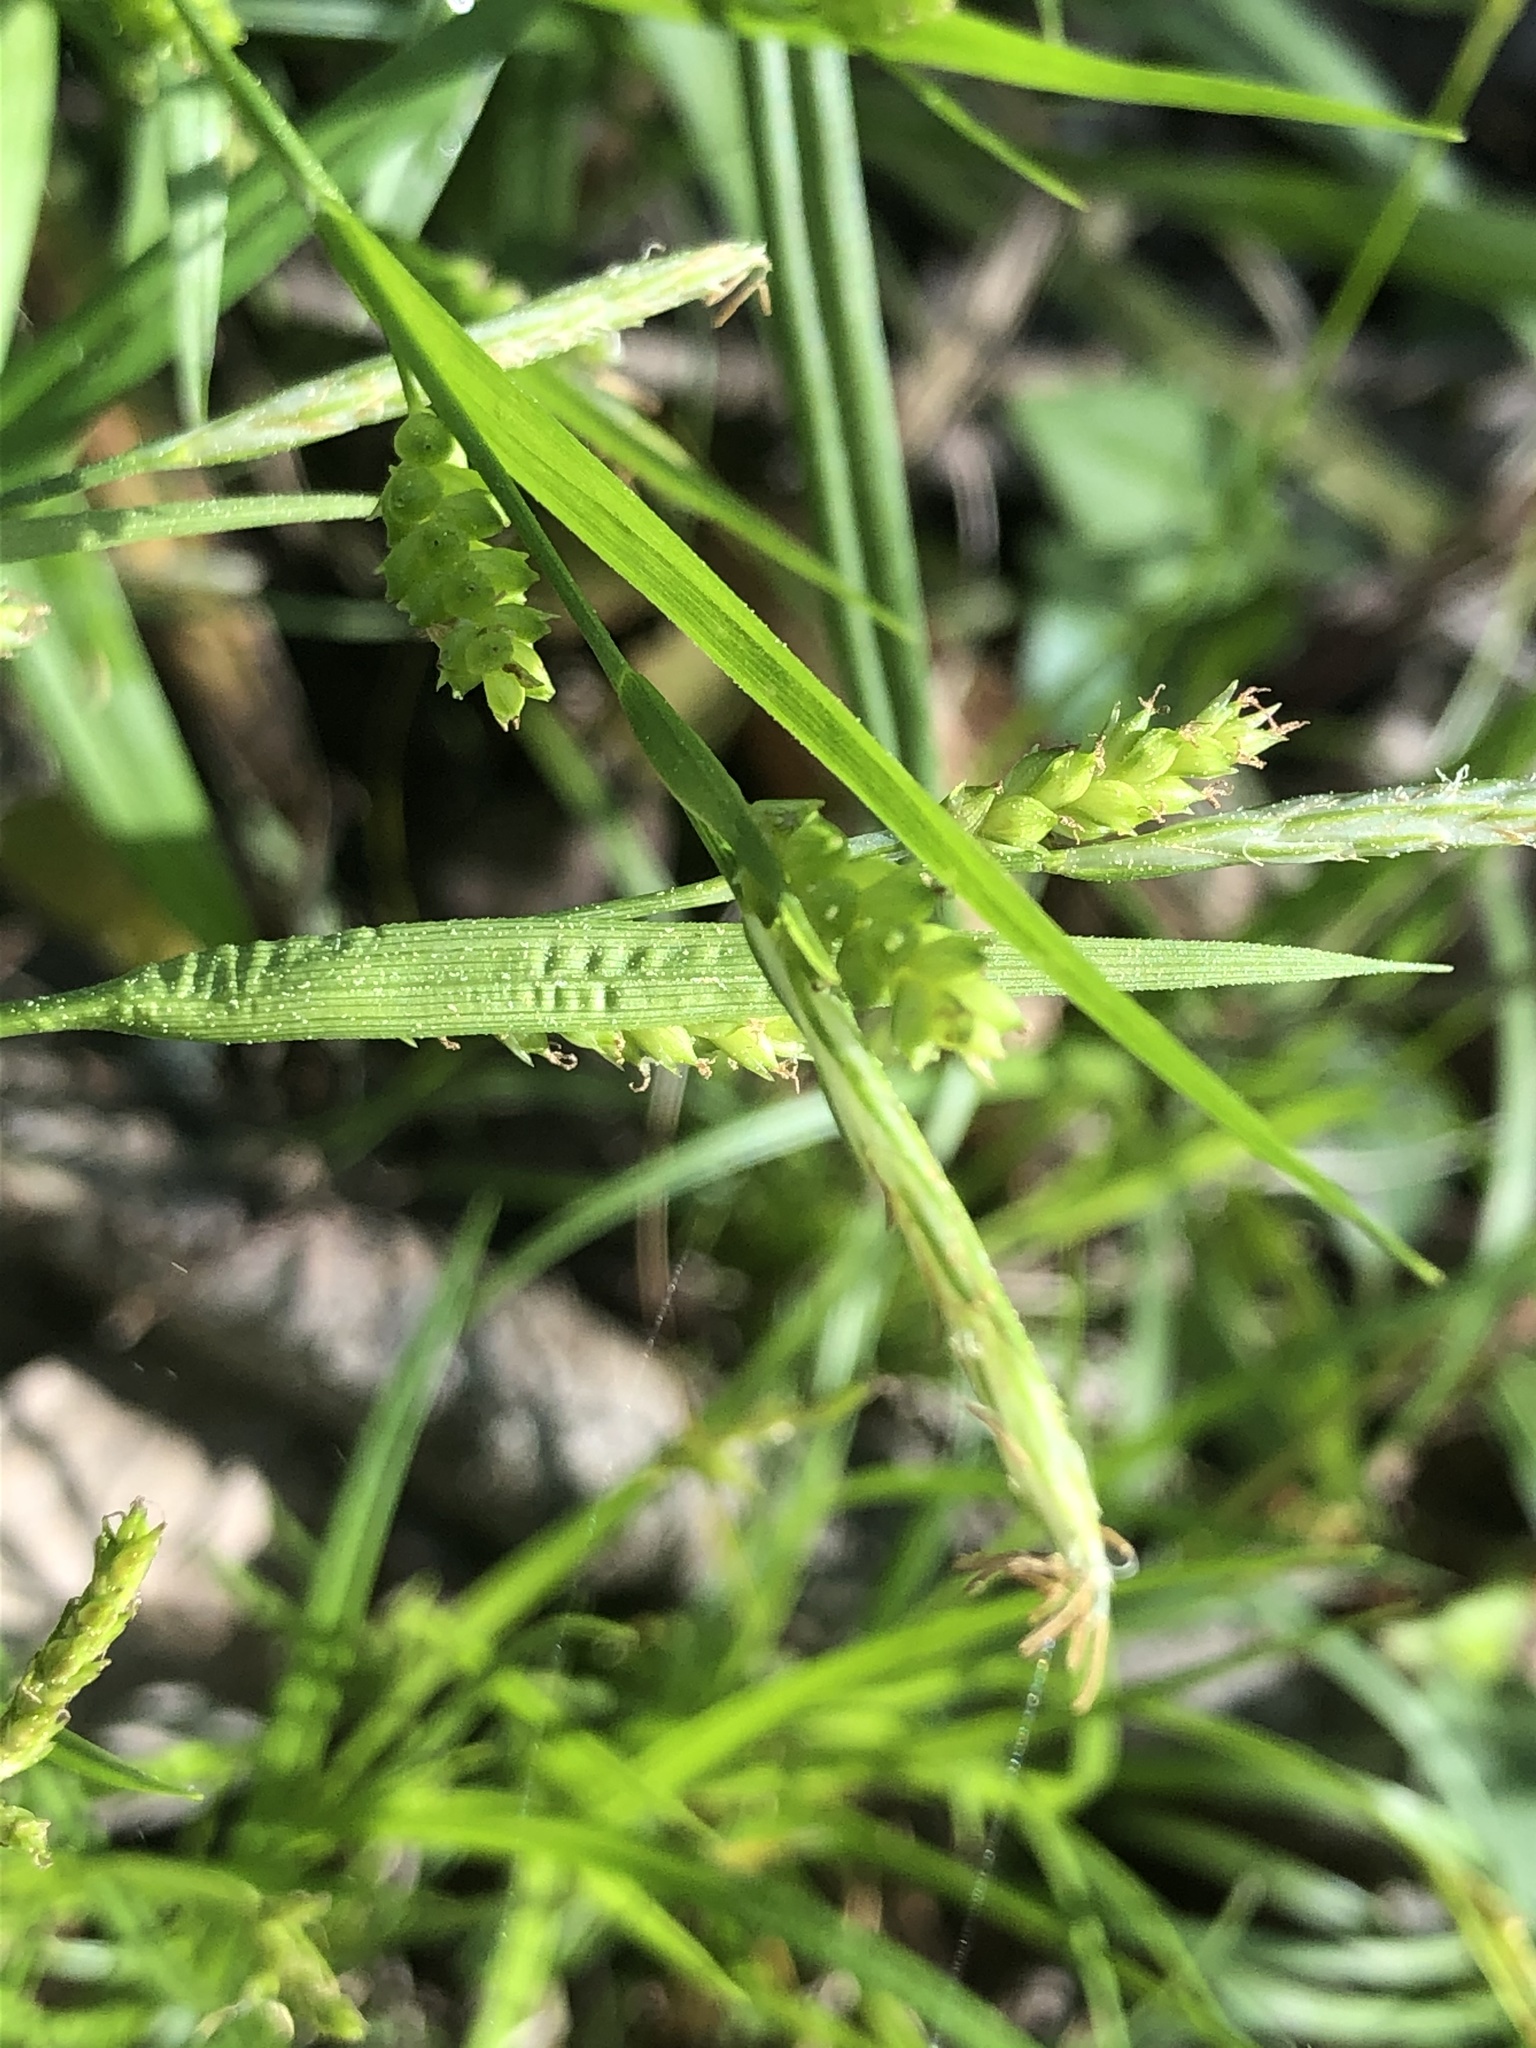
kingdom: Plantae
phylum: Tracheophyta
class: Liliopsida
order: Poales
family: Cyperaceae
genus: Carex
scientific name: Carex gholsonii
